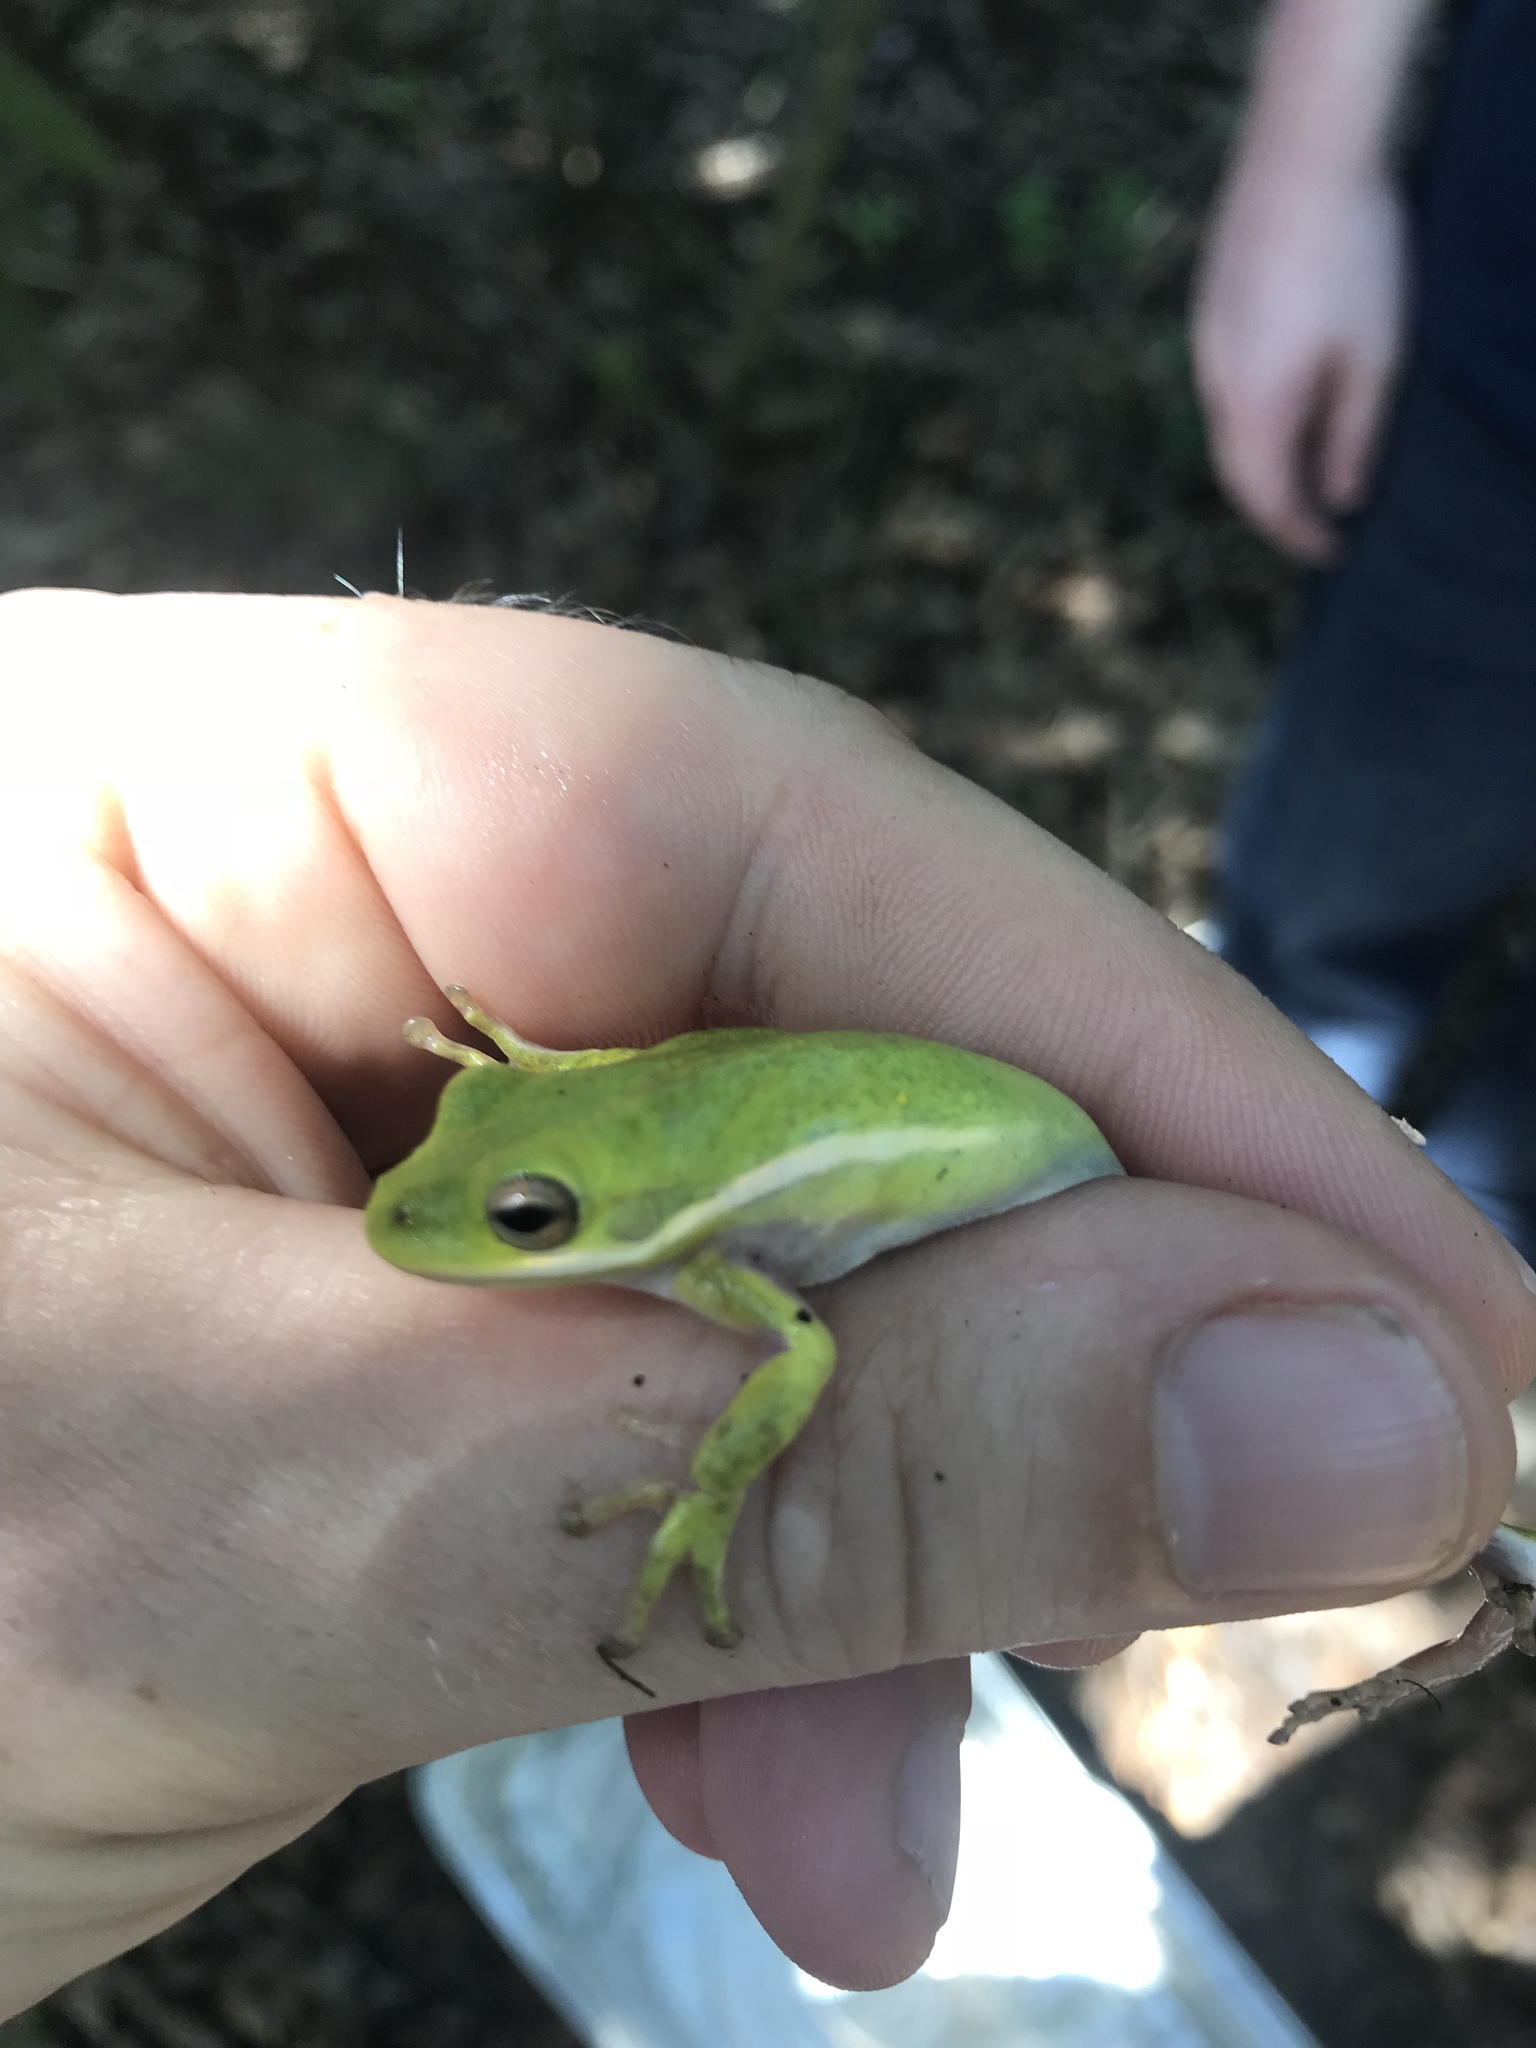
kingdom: Animalia
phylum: Chordata
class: Amphibia
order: Anura
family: Hylidae
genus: Dryophytes
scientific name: Dryophytes cinereus
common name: Green treefrog
